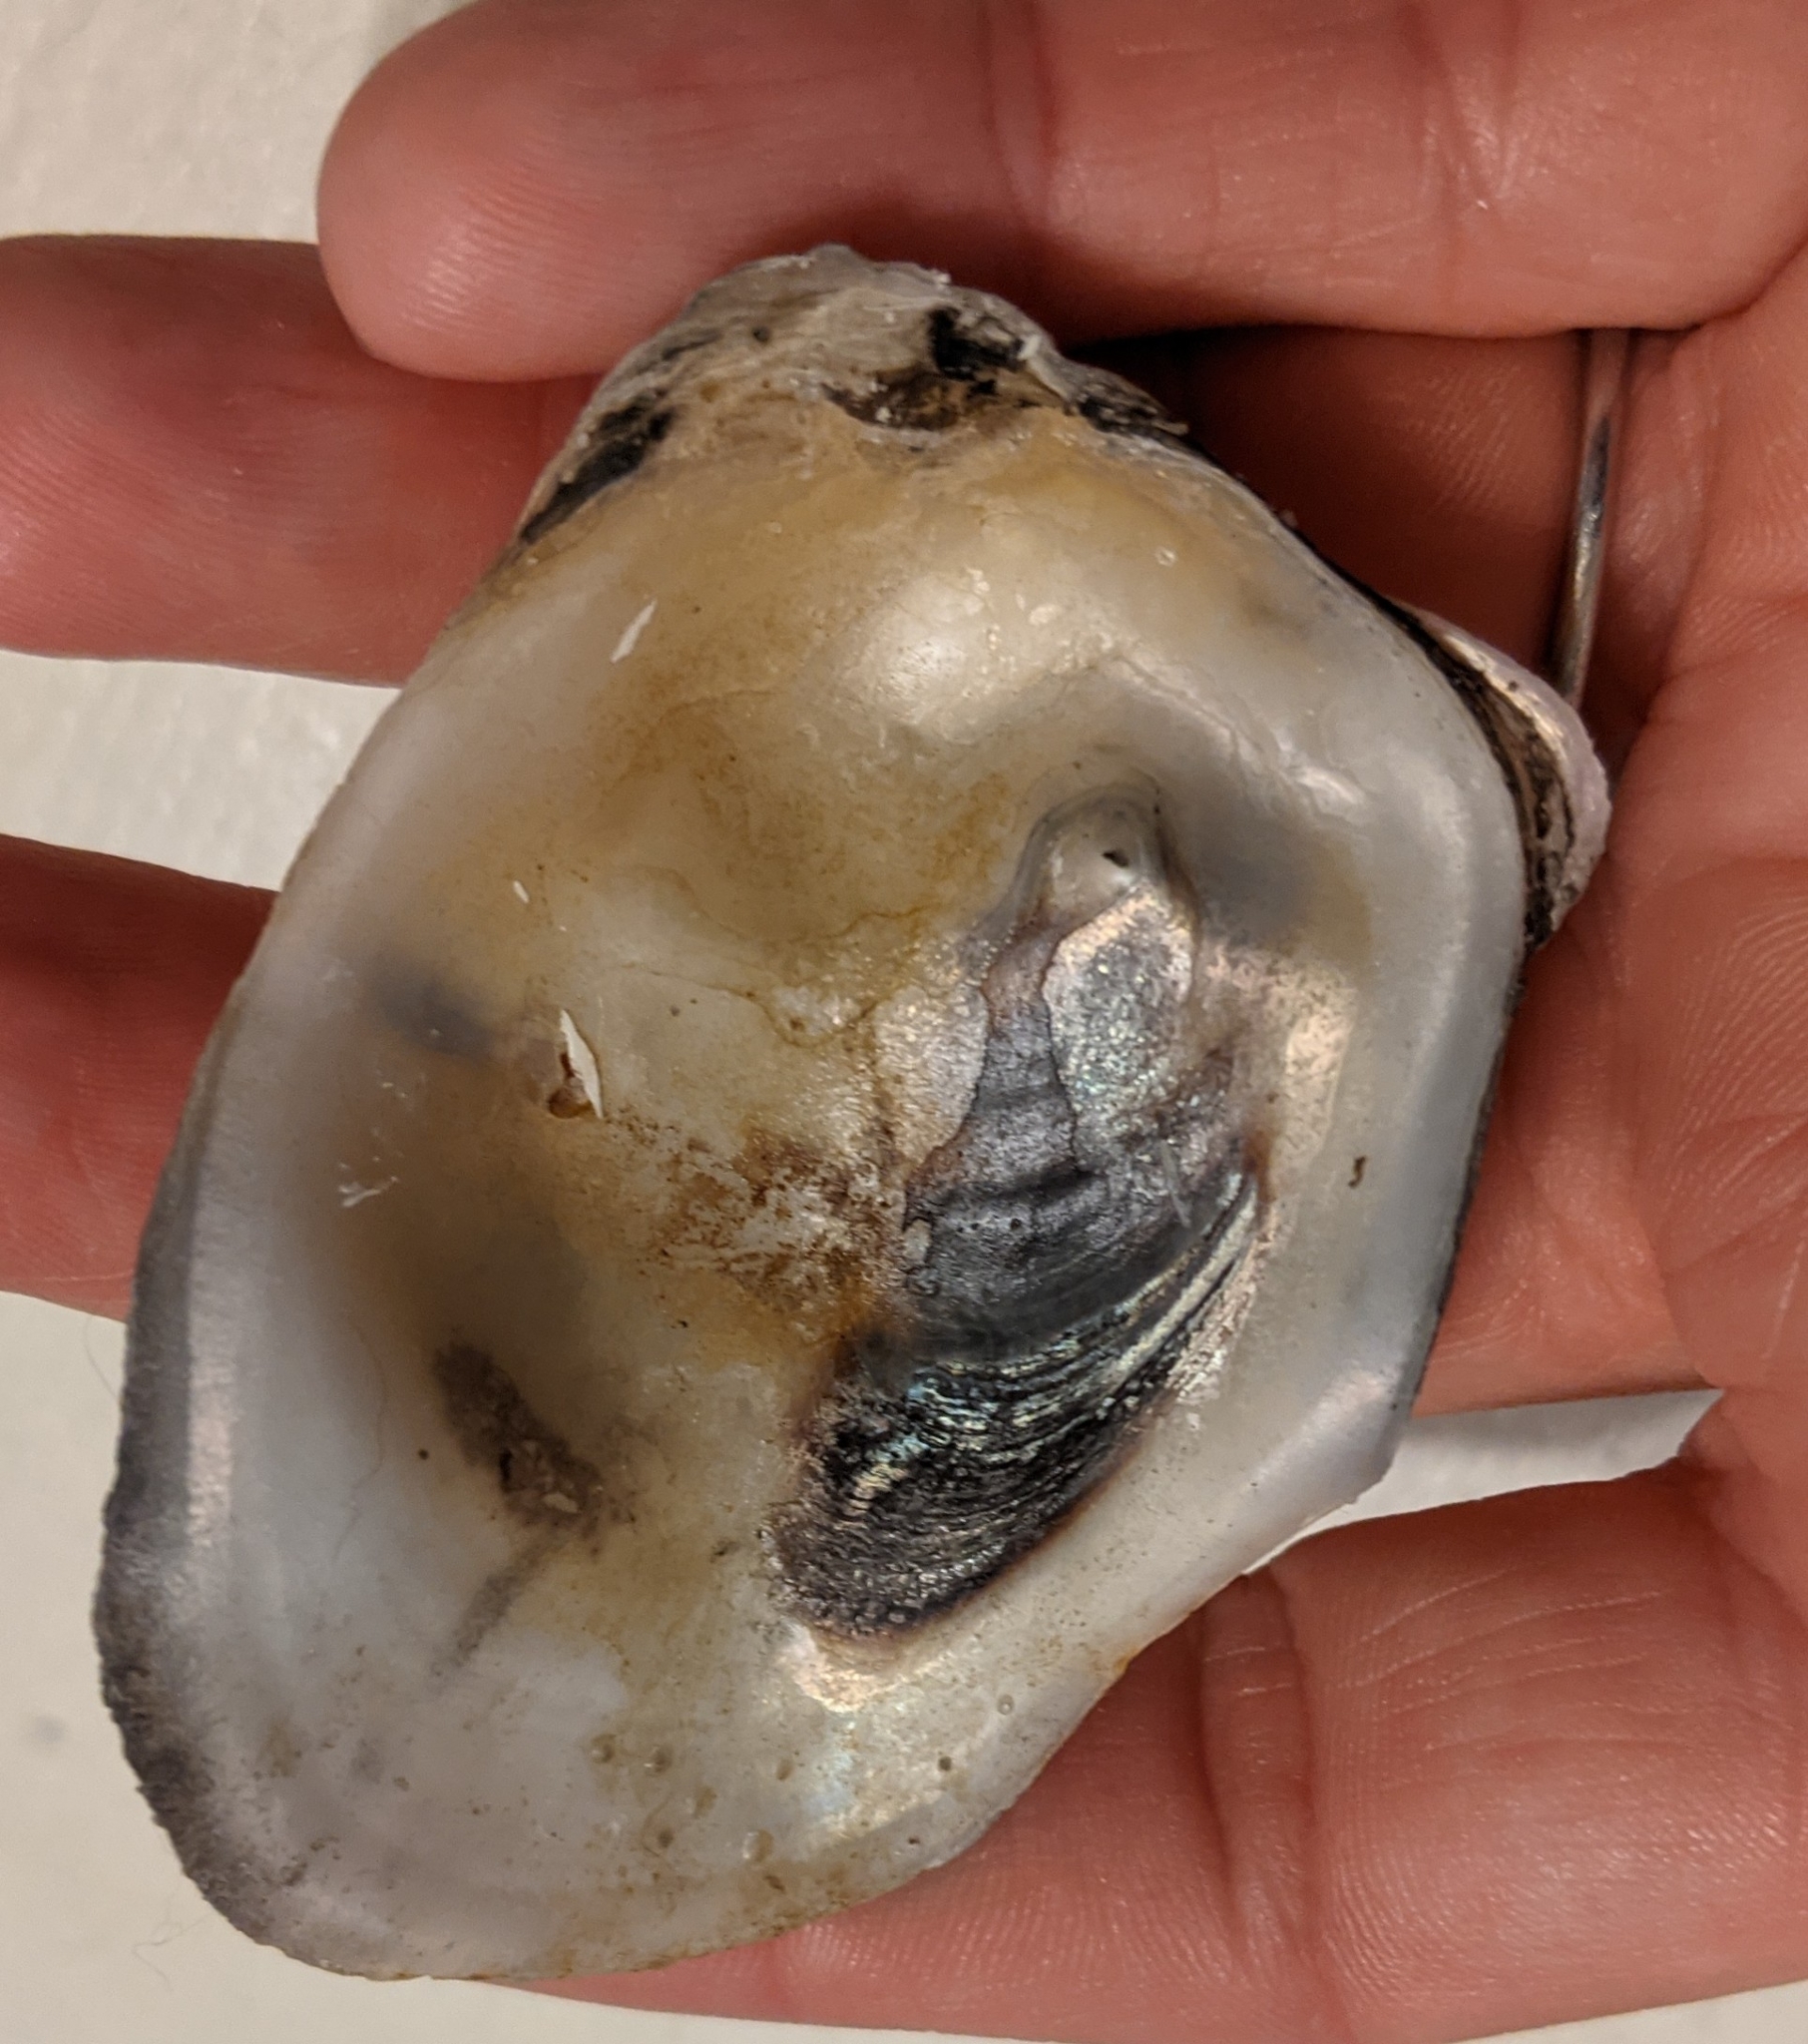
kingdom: Animalia
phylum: Mollusca
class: Bivalvia
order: Ostreida
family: Ostreidae
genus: Crassostrea
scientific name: Crassostrea virginica
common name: American oyster
